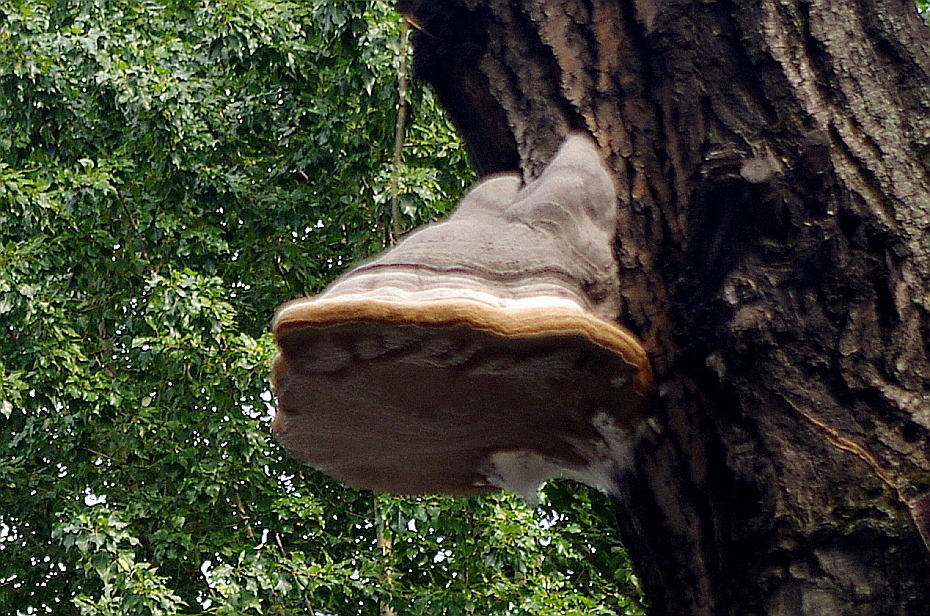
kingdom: Fungi
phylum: Basidiomycota
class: Agaricomycetes
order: Polyporales
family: Polyporaceae
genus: Fomes
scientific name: Fomes fomentarius
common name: Hoof fungus
